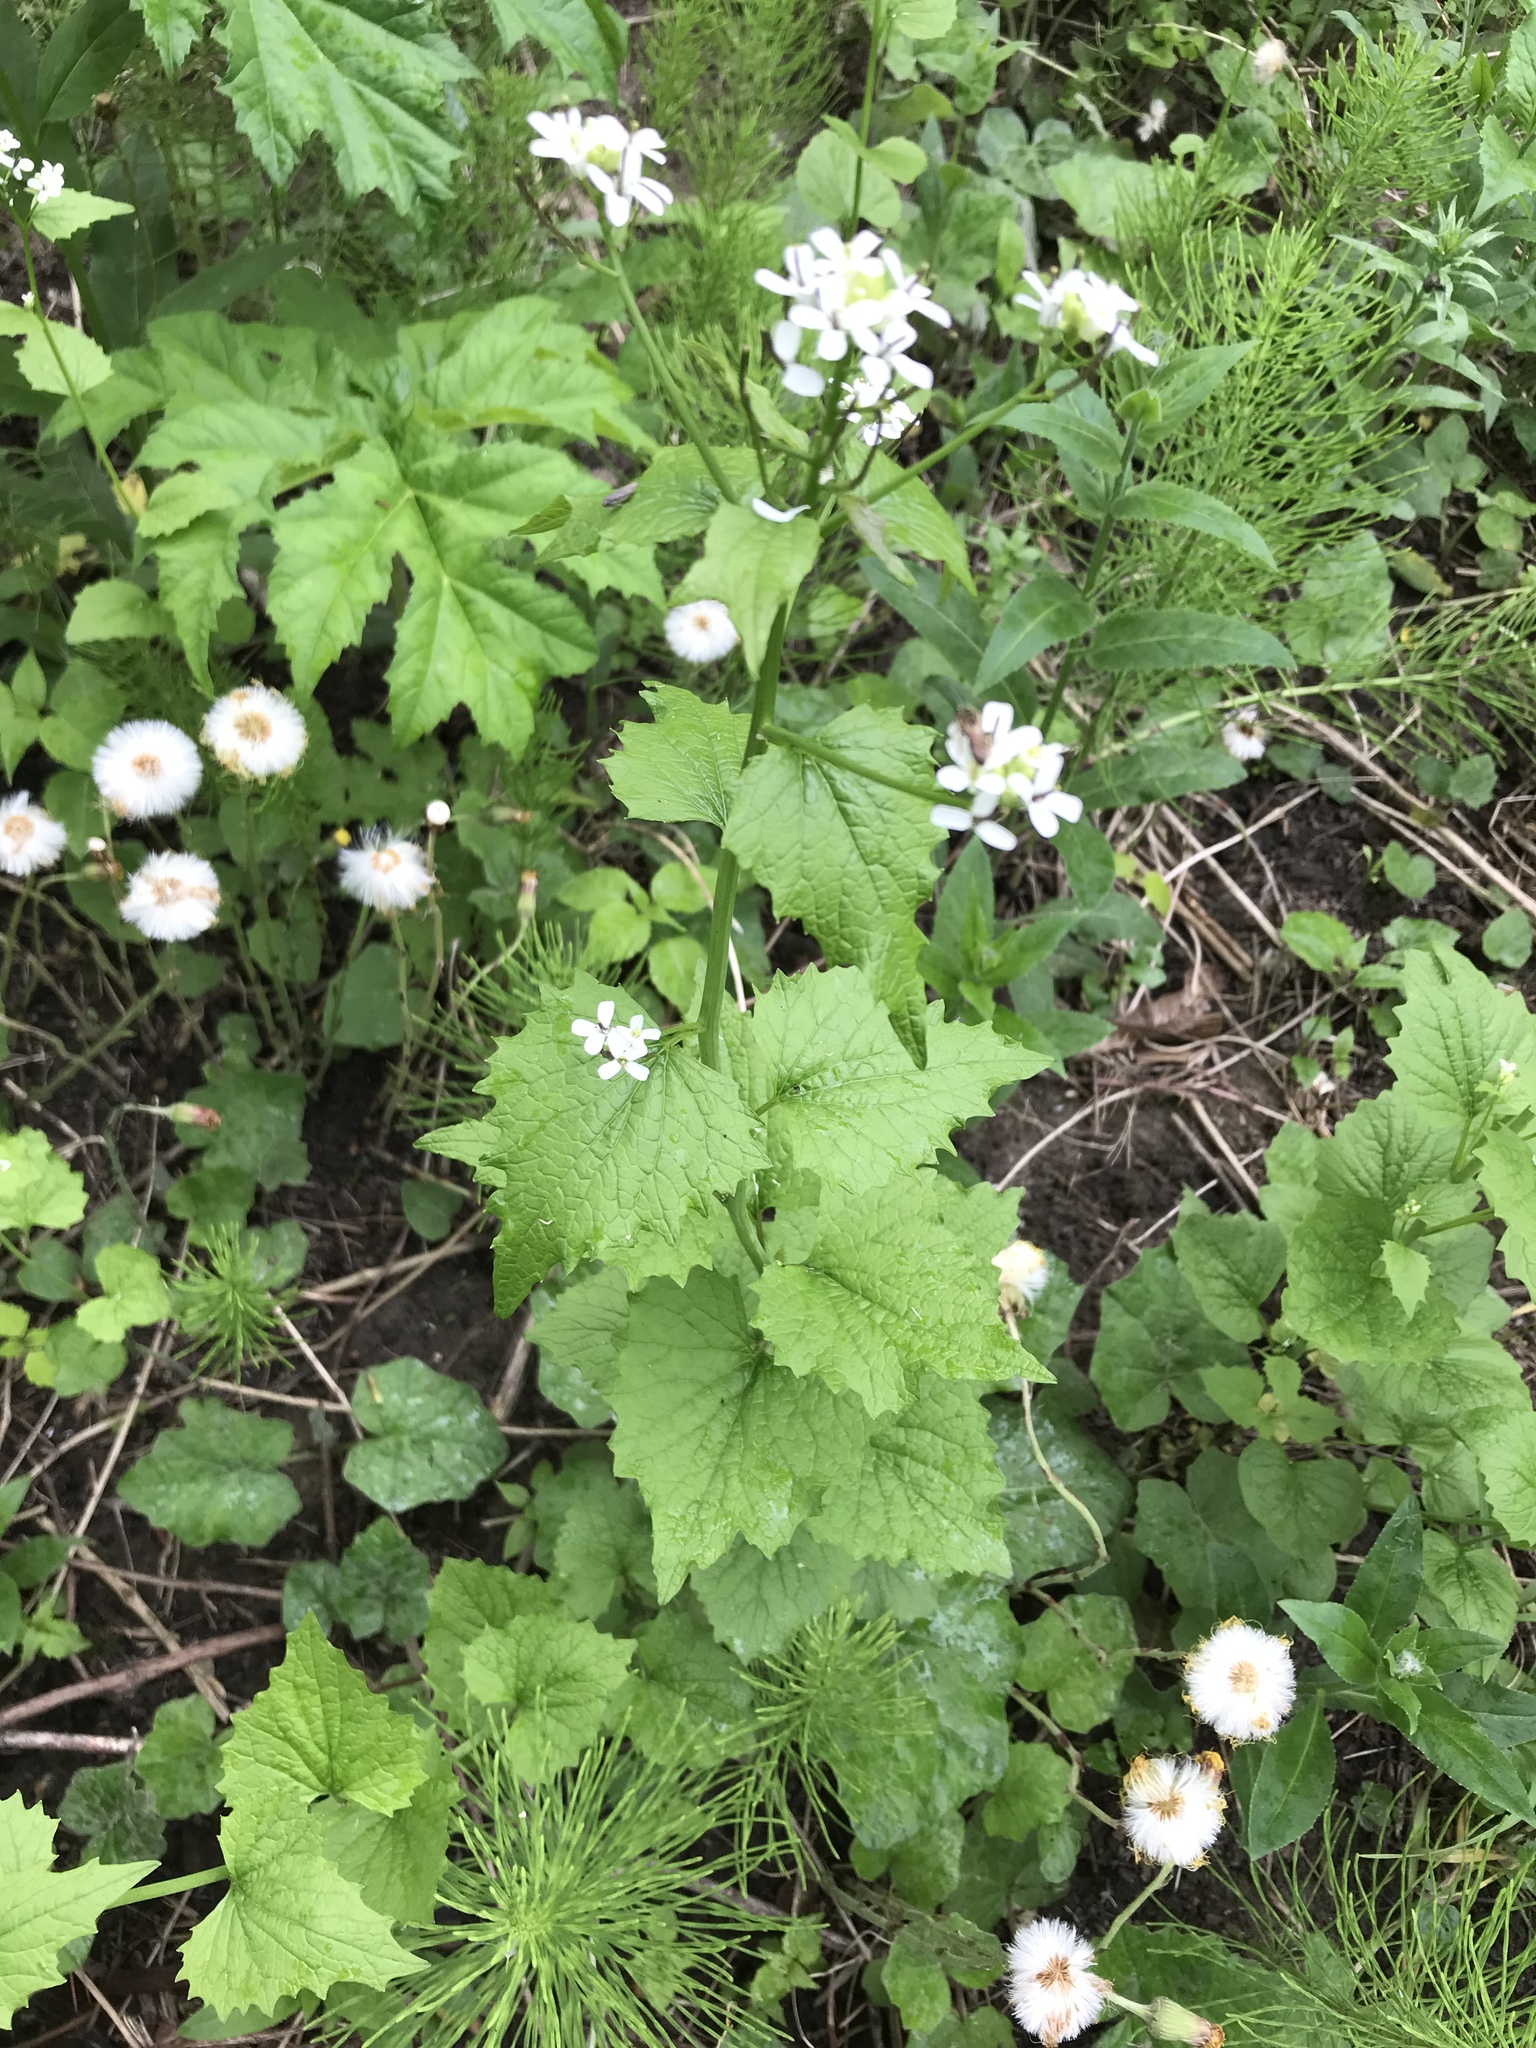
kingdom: Plantae
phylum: Tracheophyta
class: Magnoliopsida
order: Brassicales
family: Brassicaceae
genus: Alliaria
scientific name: Alliaria petiolata
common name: Garlic mustard
